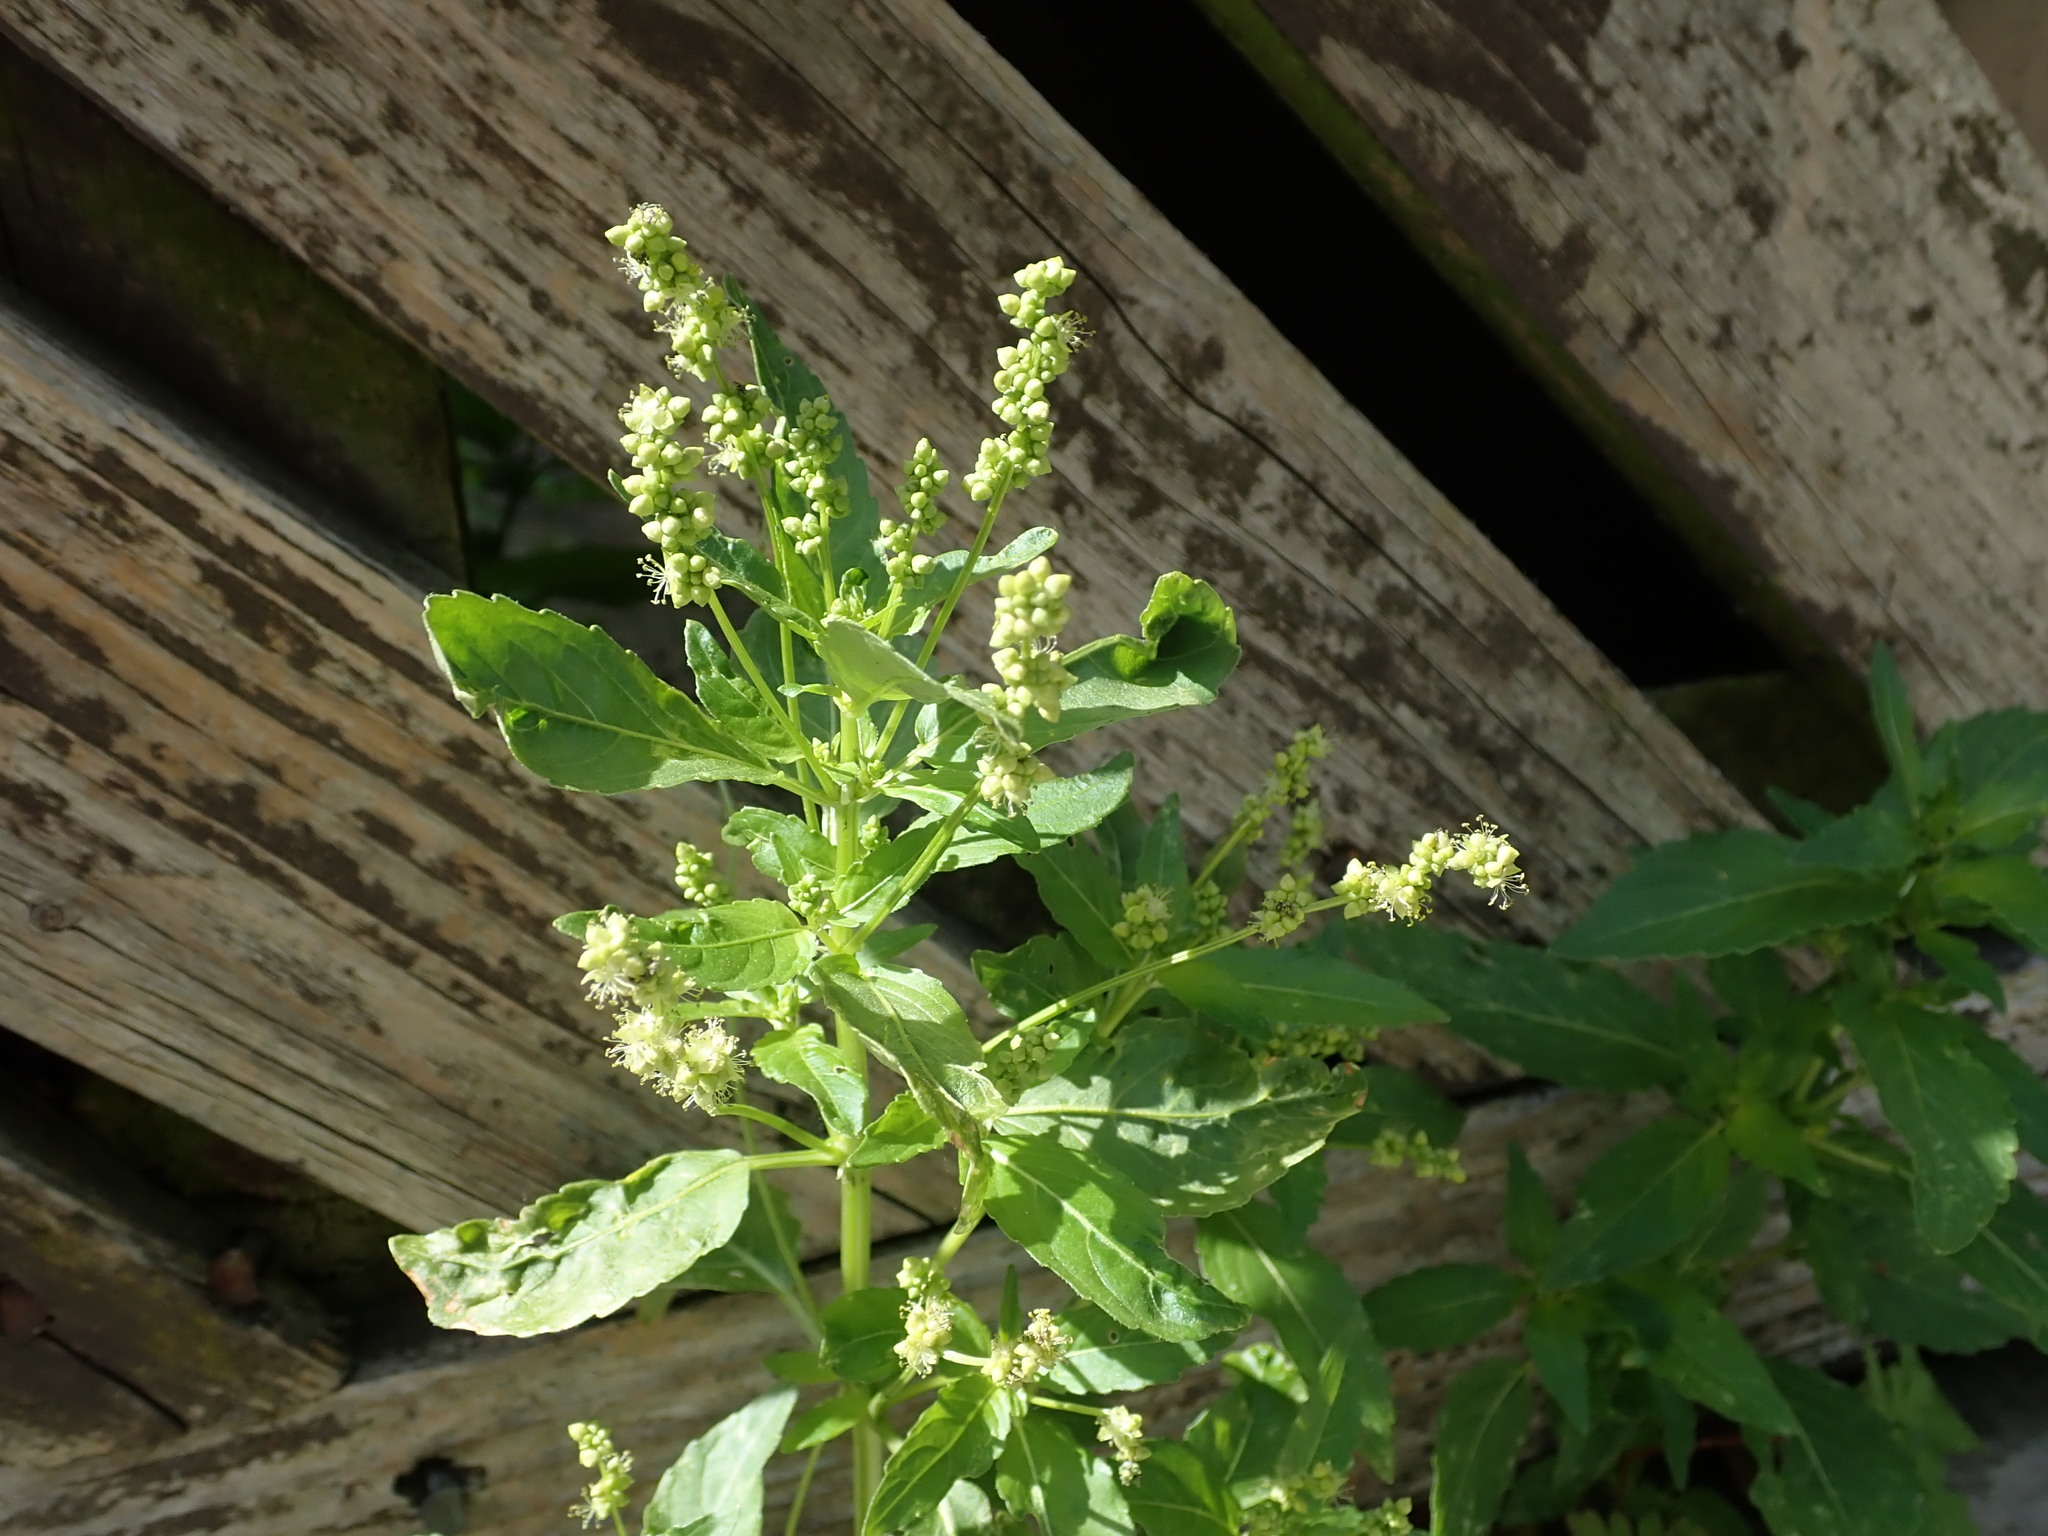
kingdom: Plantae
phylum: Tracheophyta
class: Magnoliopsida
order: Malpighiales
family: Euphorbiaceae
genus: Mercurialis
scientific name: Mercurialis annua
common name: Annual mercury
